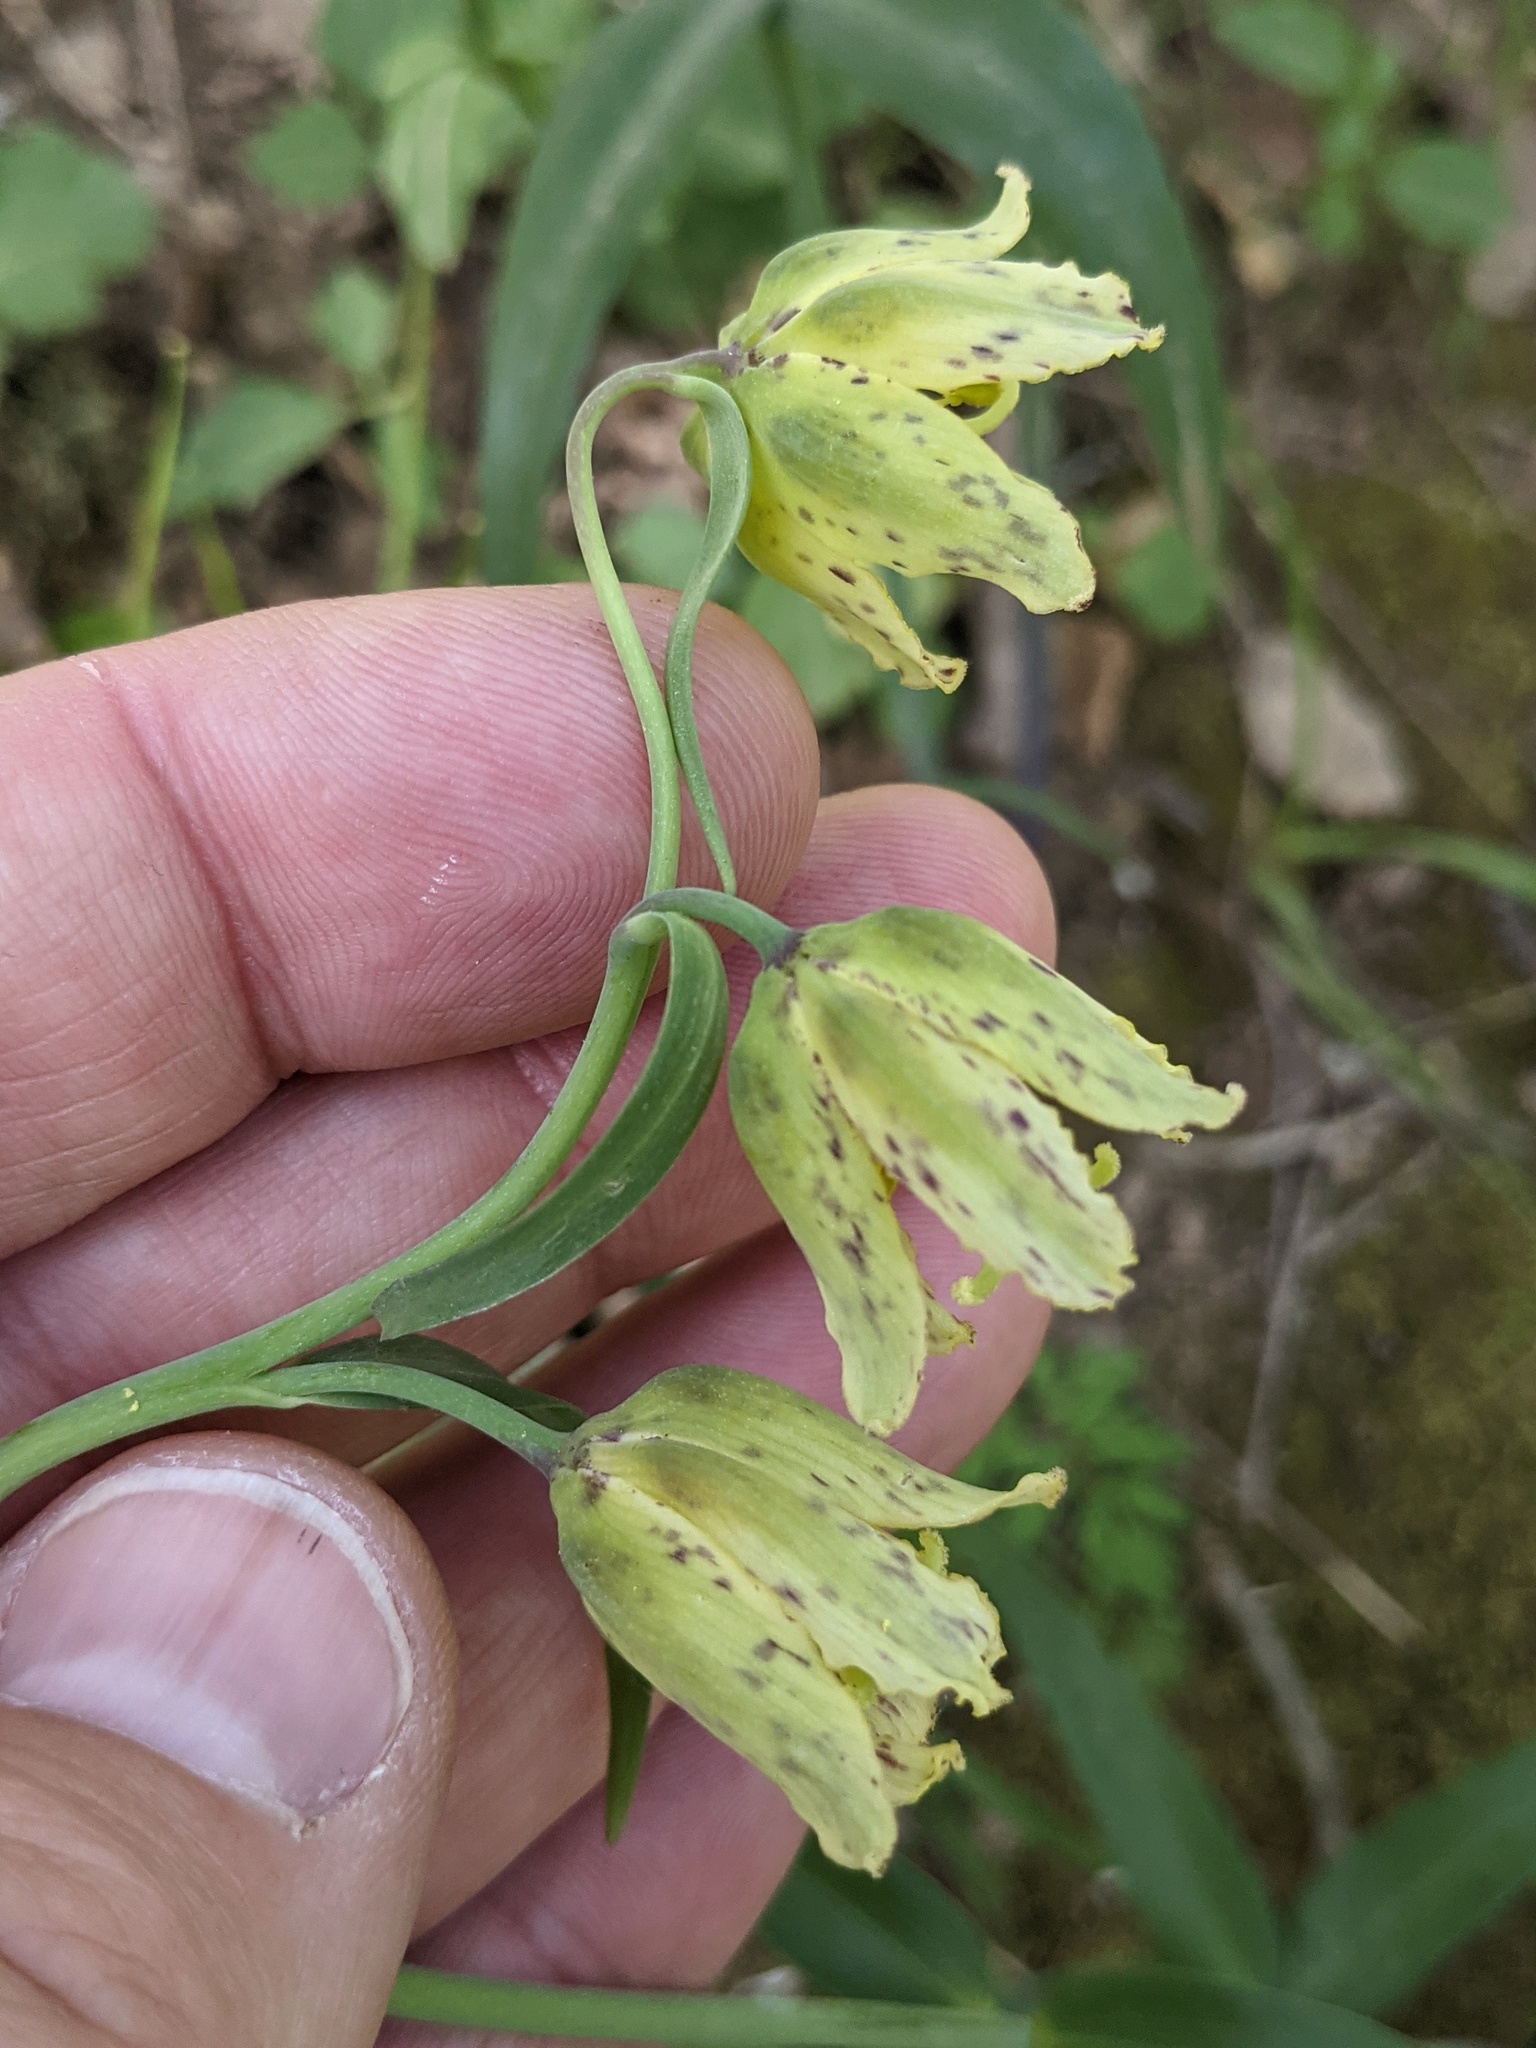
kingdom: Plantae
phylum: Tracheophyta
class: Liliopsida
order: Liliales
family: Liliaceae
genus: Fritillaria
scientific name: Fritillaria affinis
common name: Ojai fritillary
